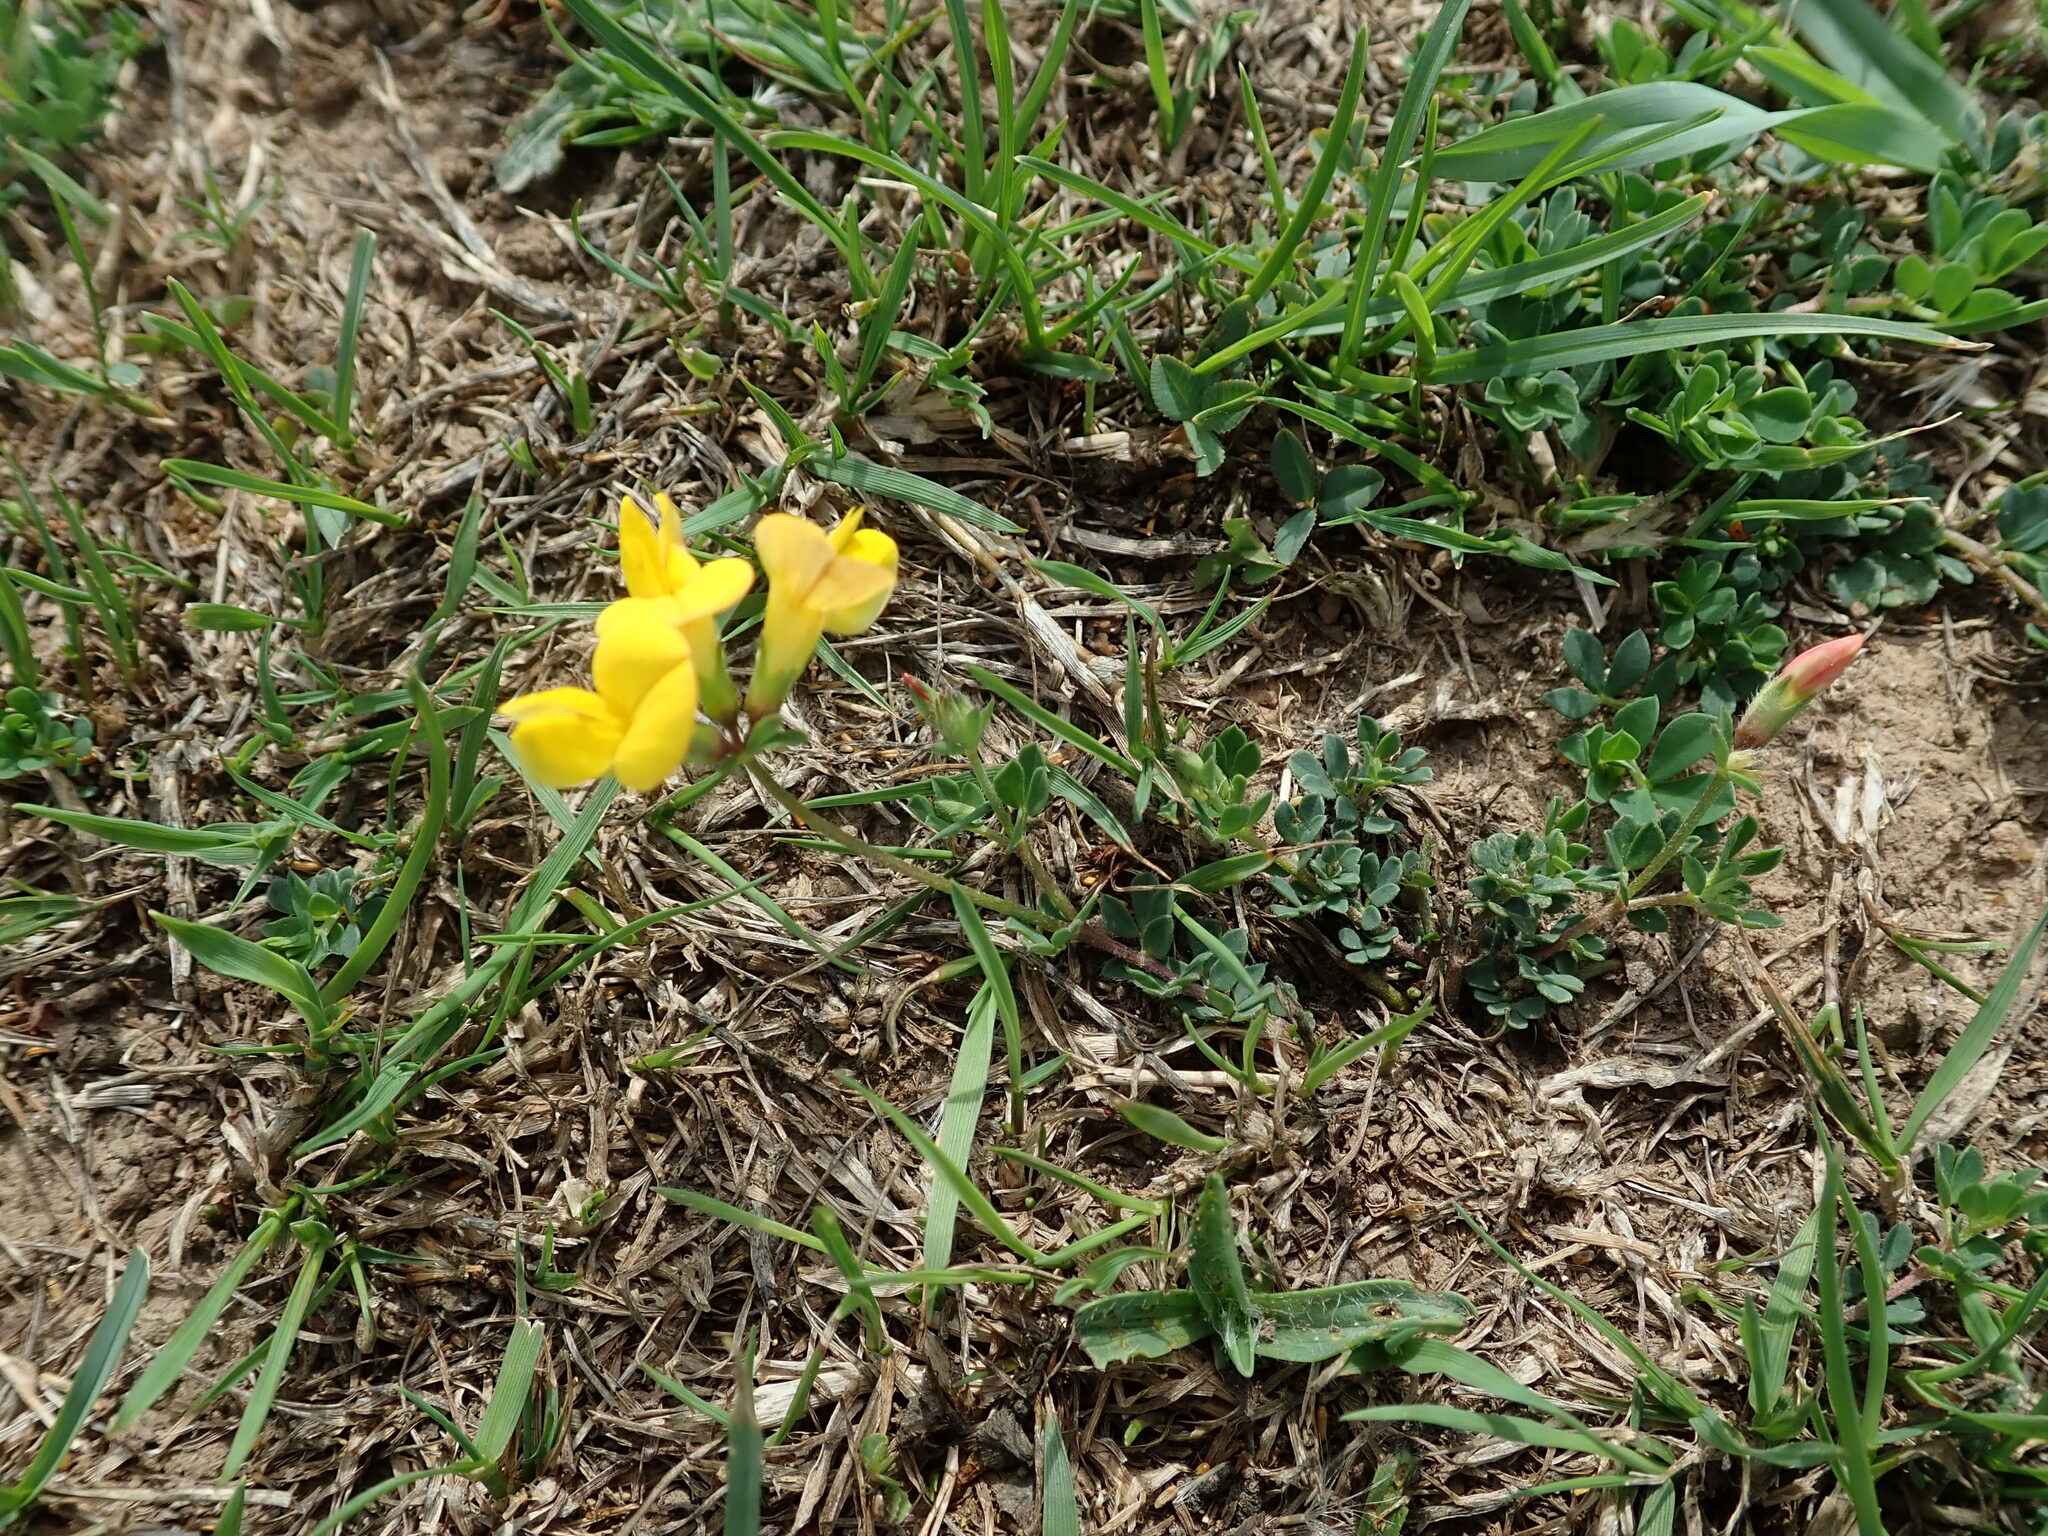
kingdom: Plantae
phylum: Tracheophyta
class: Magnoliopsida
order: Fabales
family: Fabaceae
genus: Lotus
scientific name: Lotus corniculatus
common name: Common bird's-foot-trefoil
